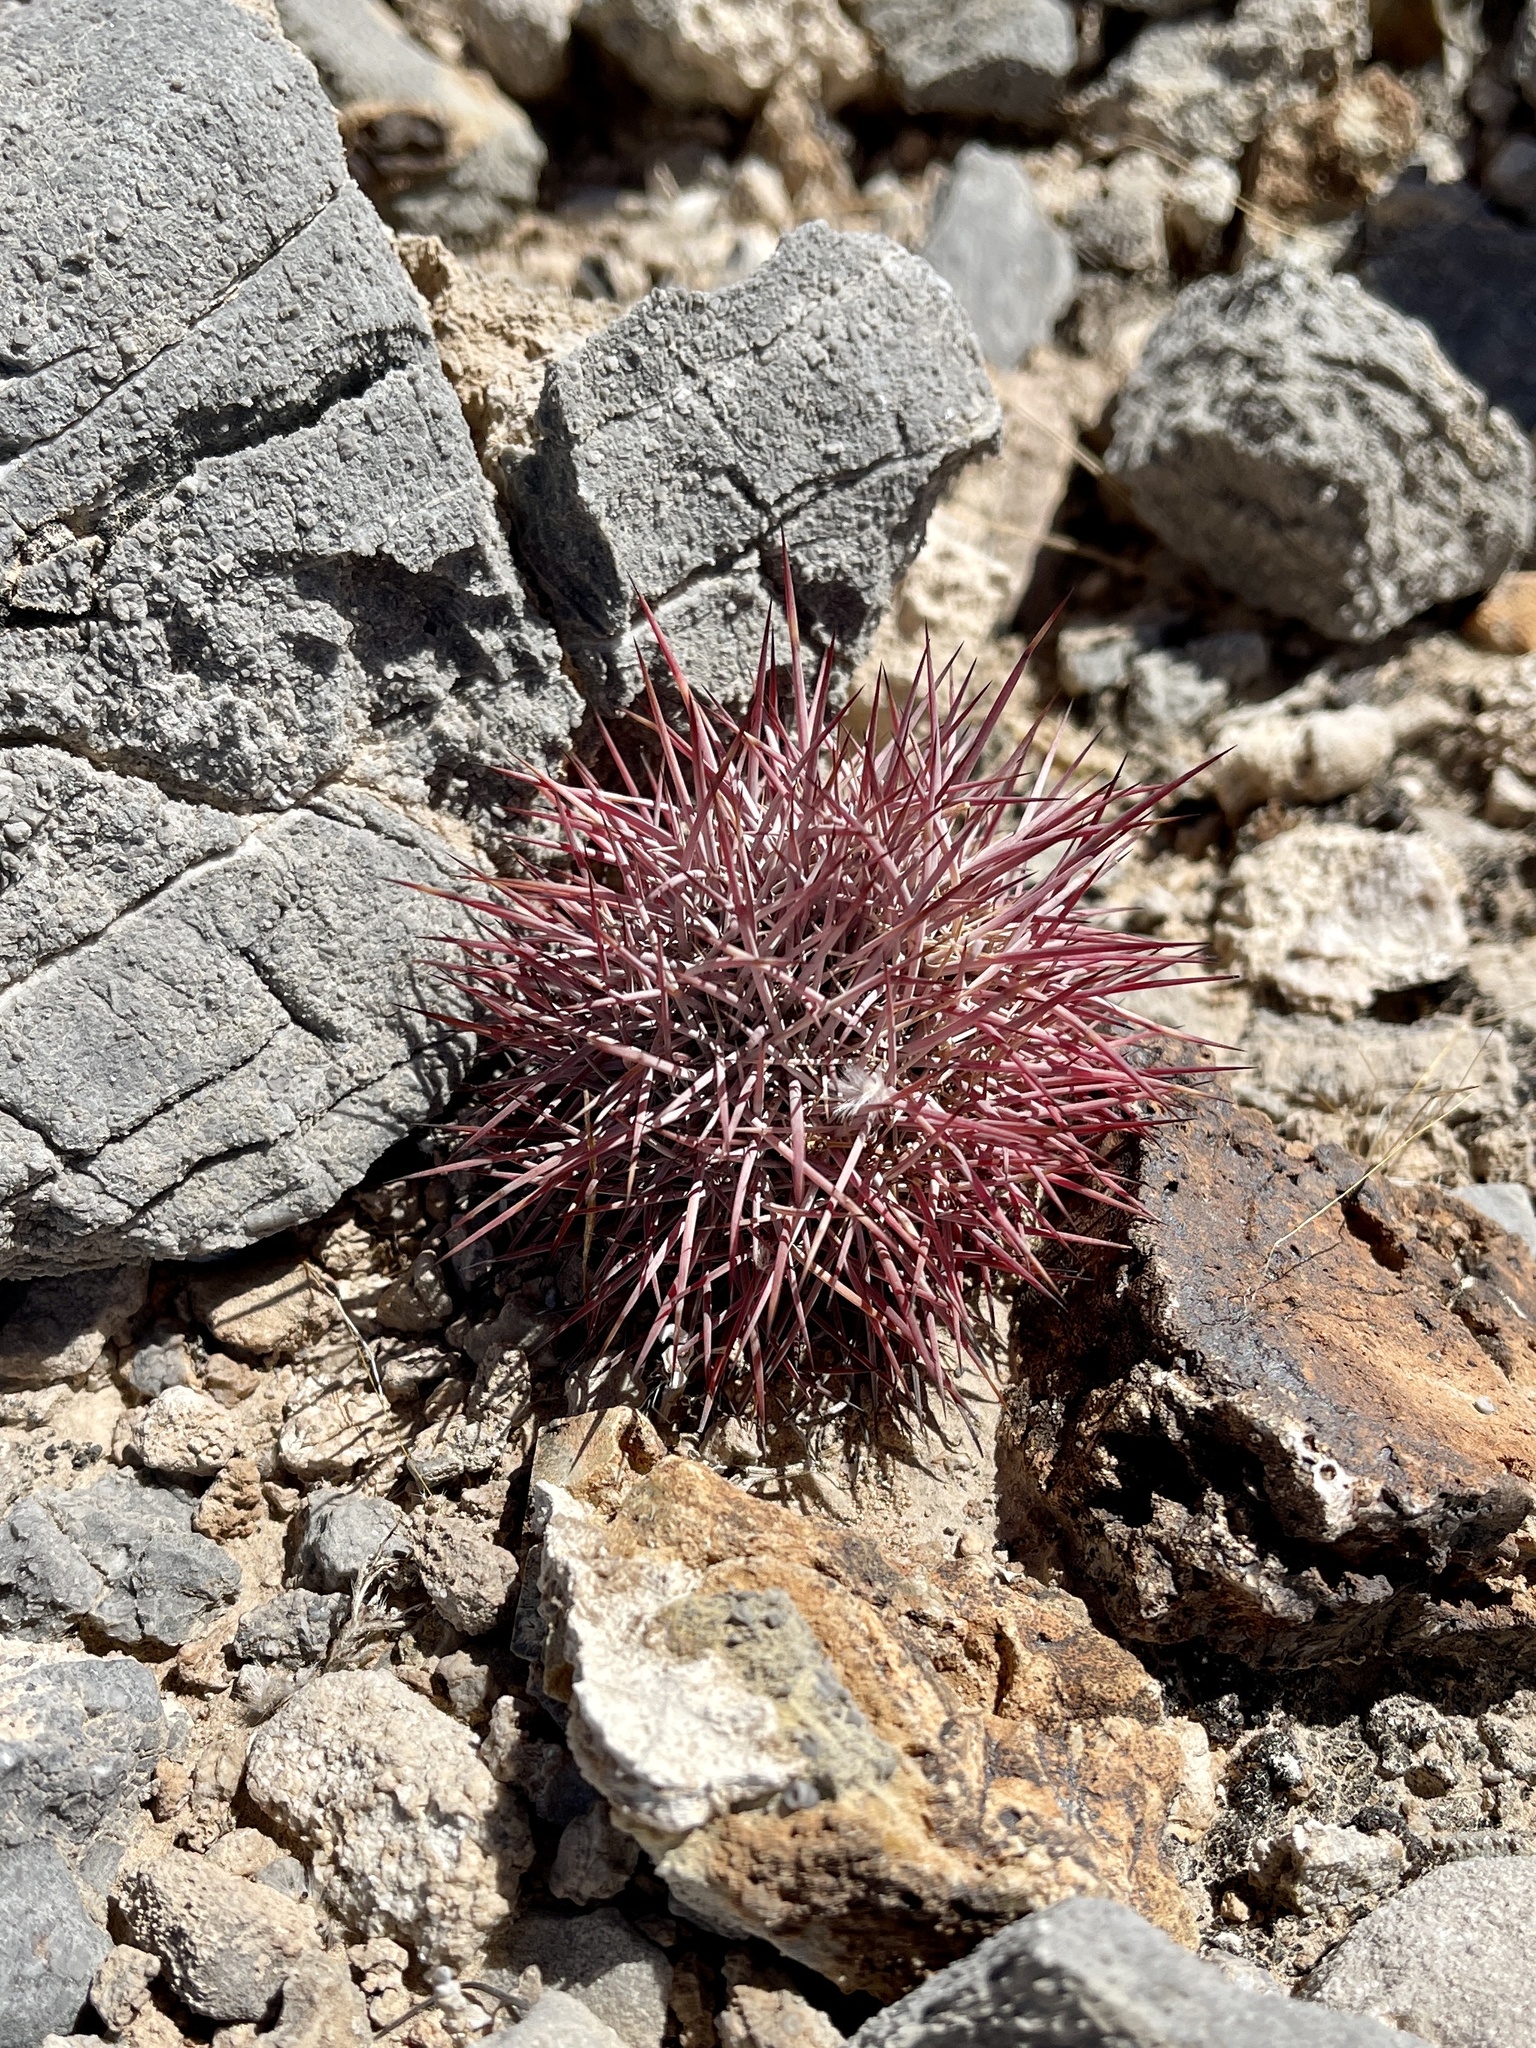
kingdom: Plantae
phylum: Tracheophyta
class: Magnoliopsida
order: Caryophyllales
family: Cactaceae
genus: Sclerocactus
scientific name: Sclerocactus johnsonii
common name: Eight-spine fishhook cactus
